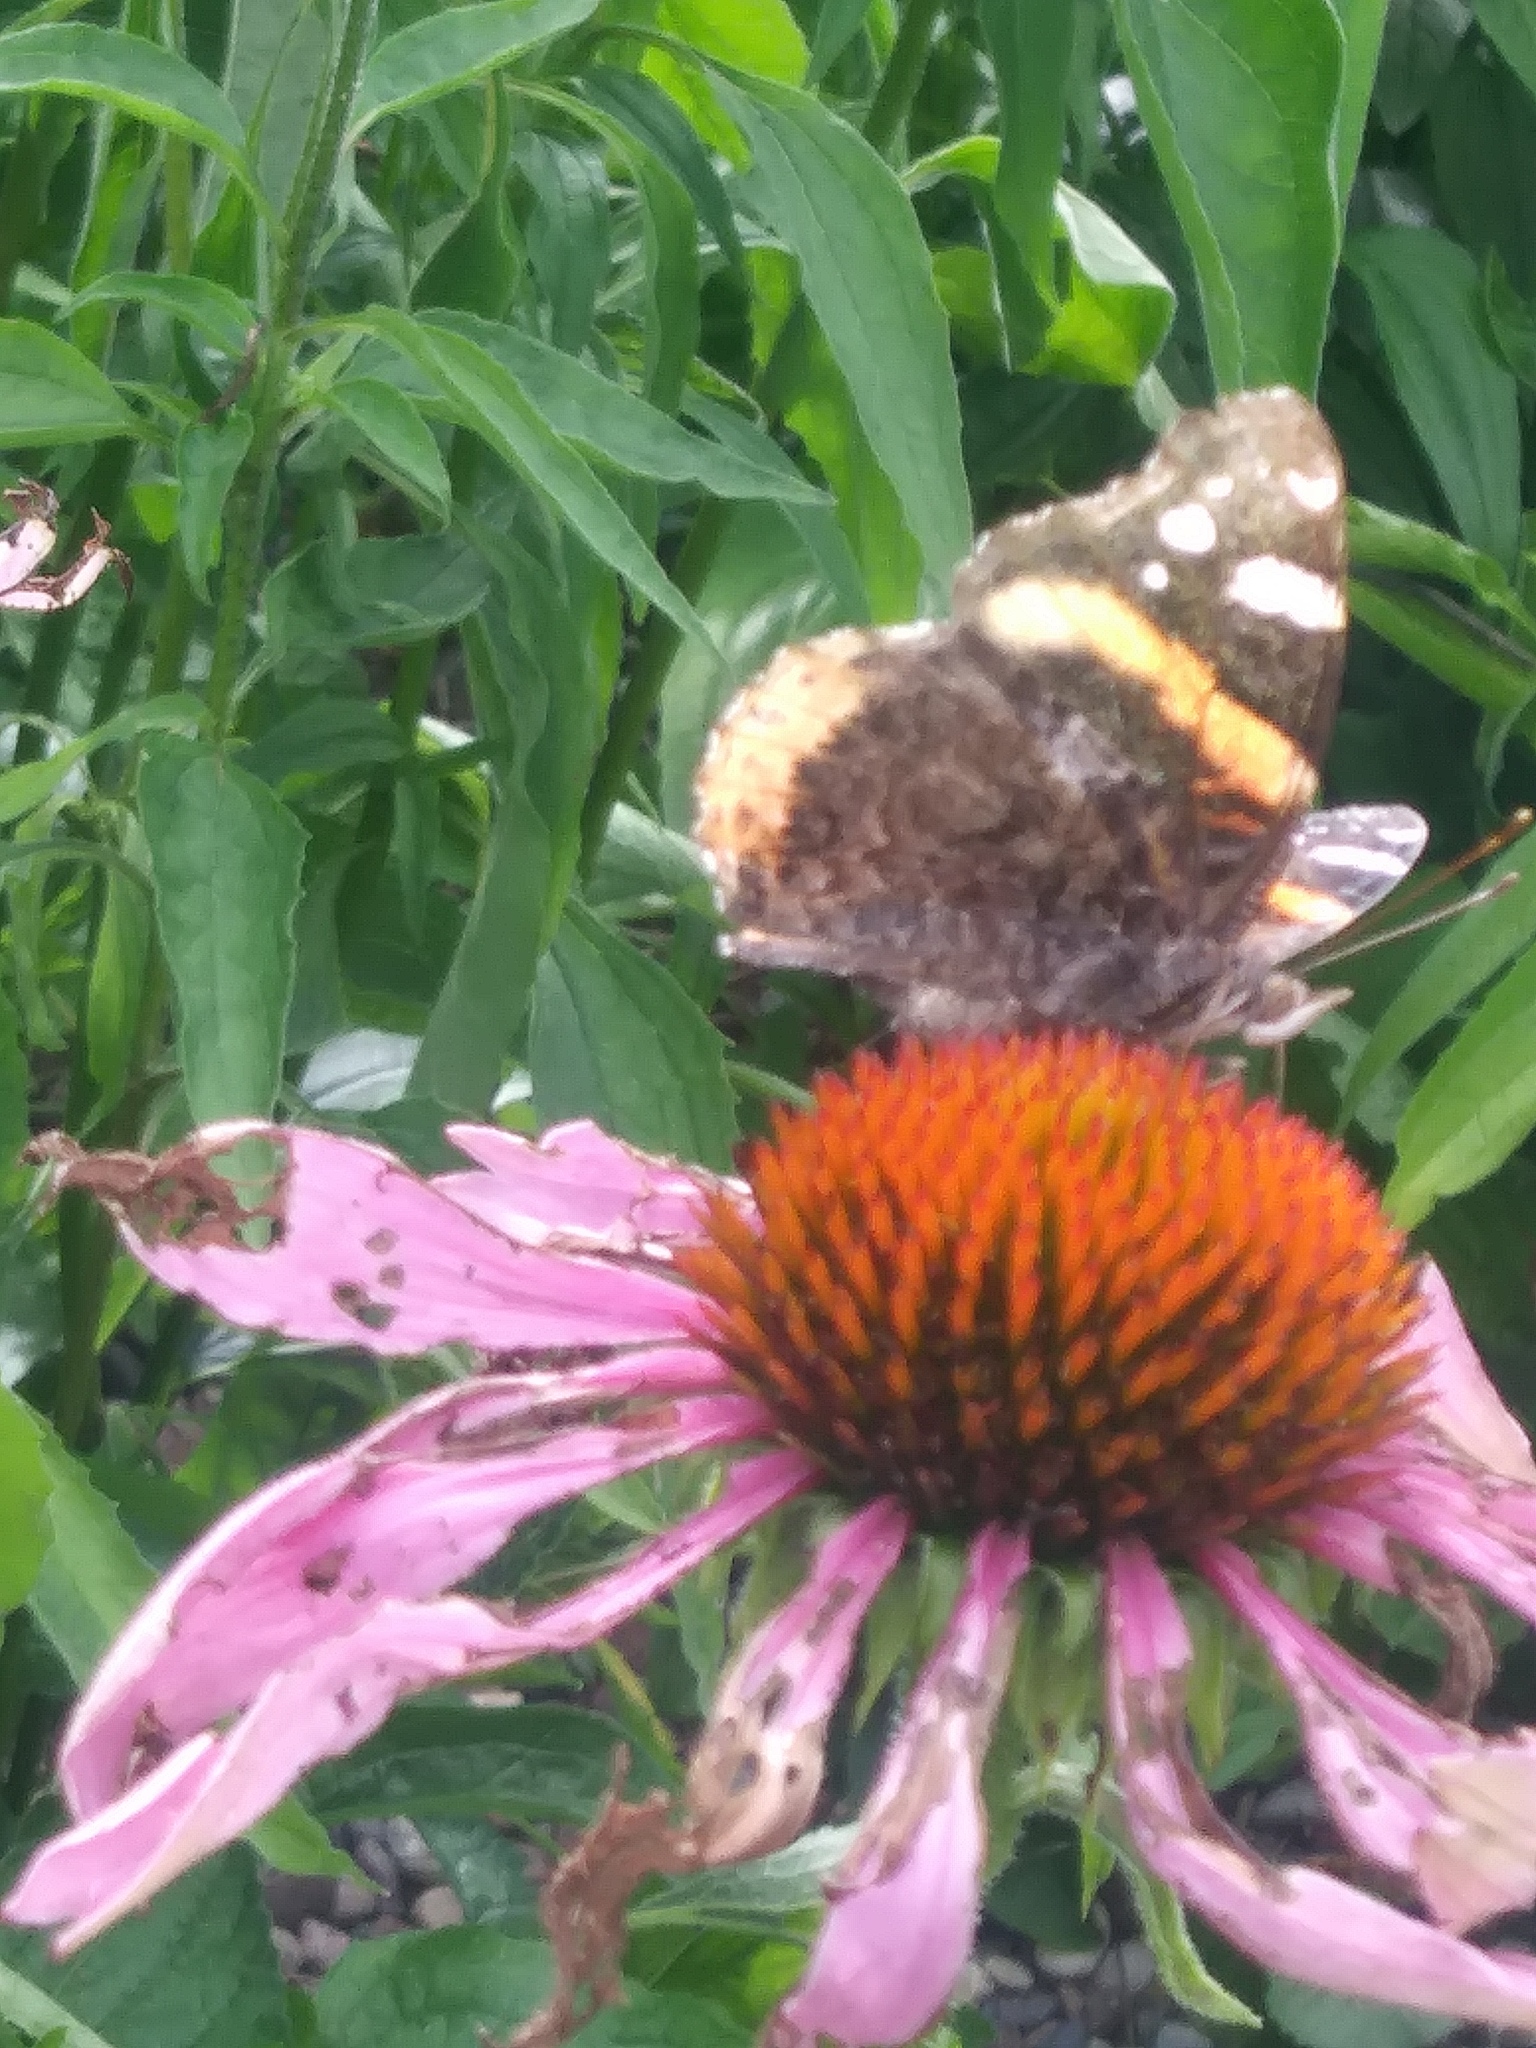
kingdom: Animalia
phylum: Arthropoda
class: Insecta
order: Lepidoptera
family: Nymphalidae
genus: Vanessa
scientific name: Vanessa atalanta
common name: Red admiral
